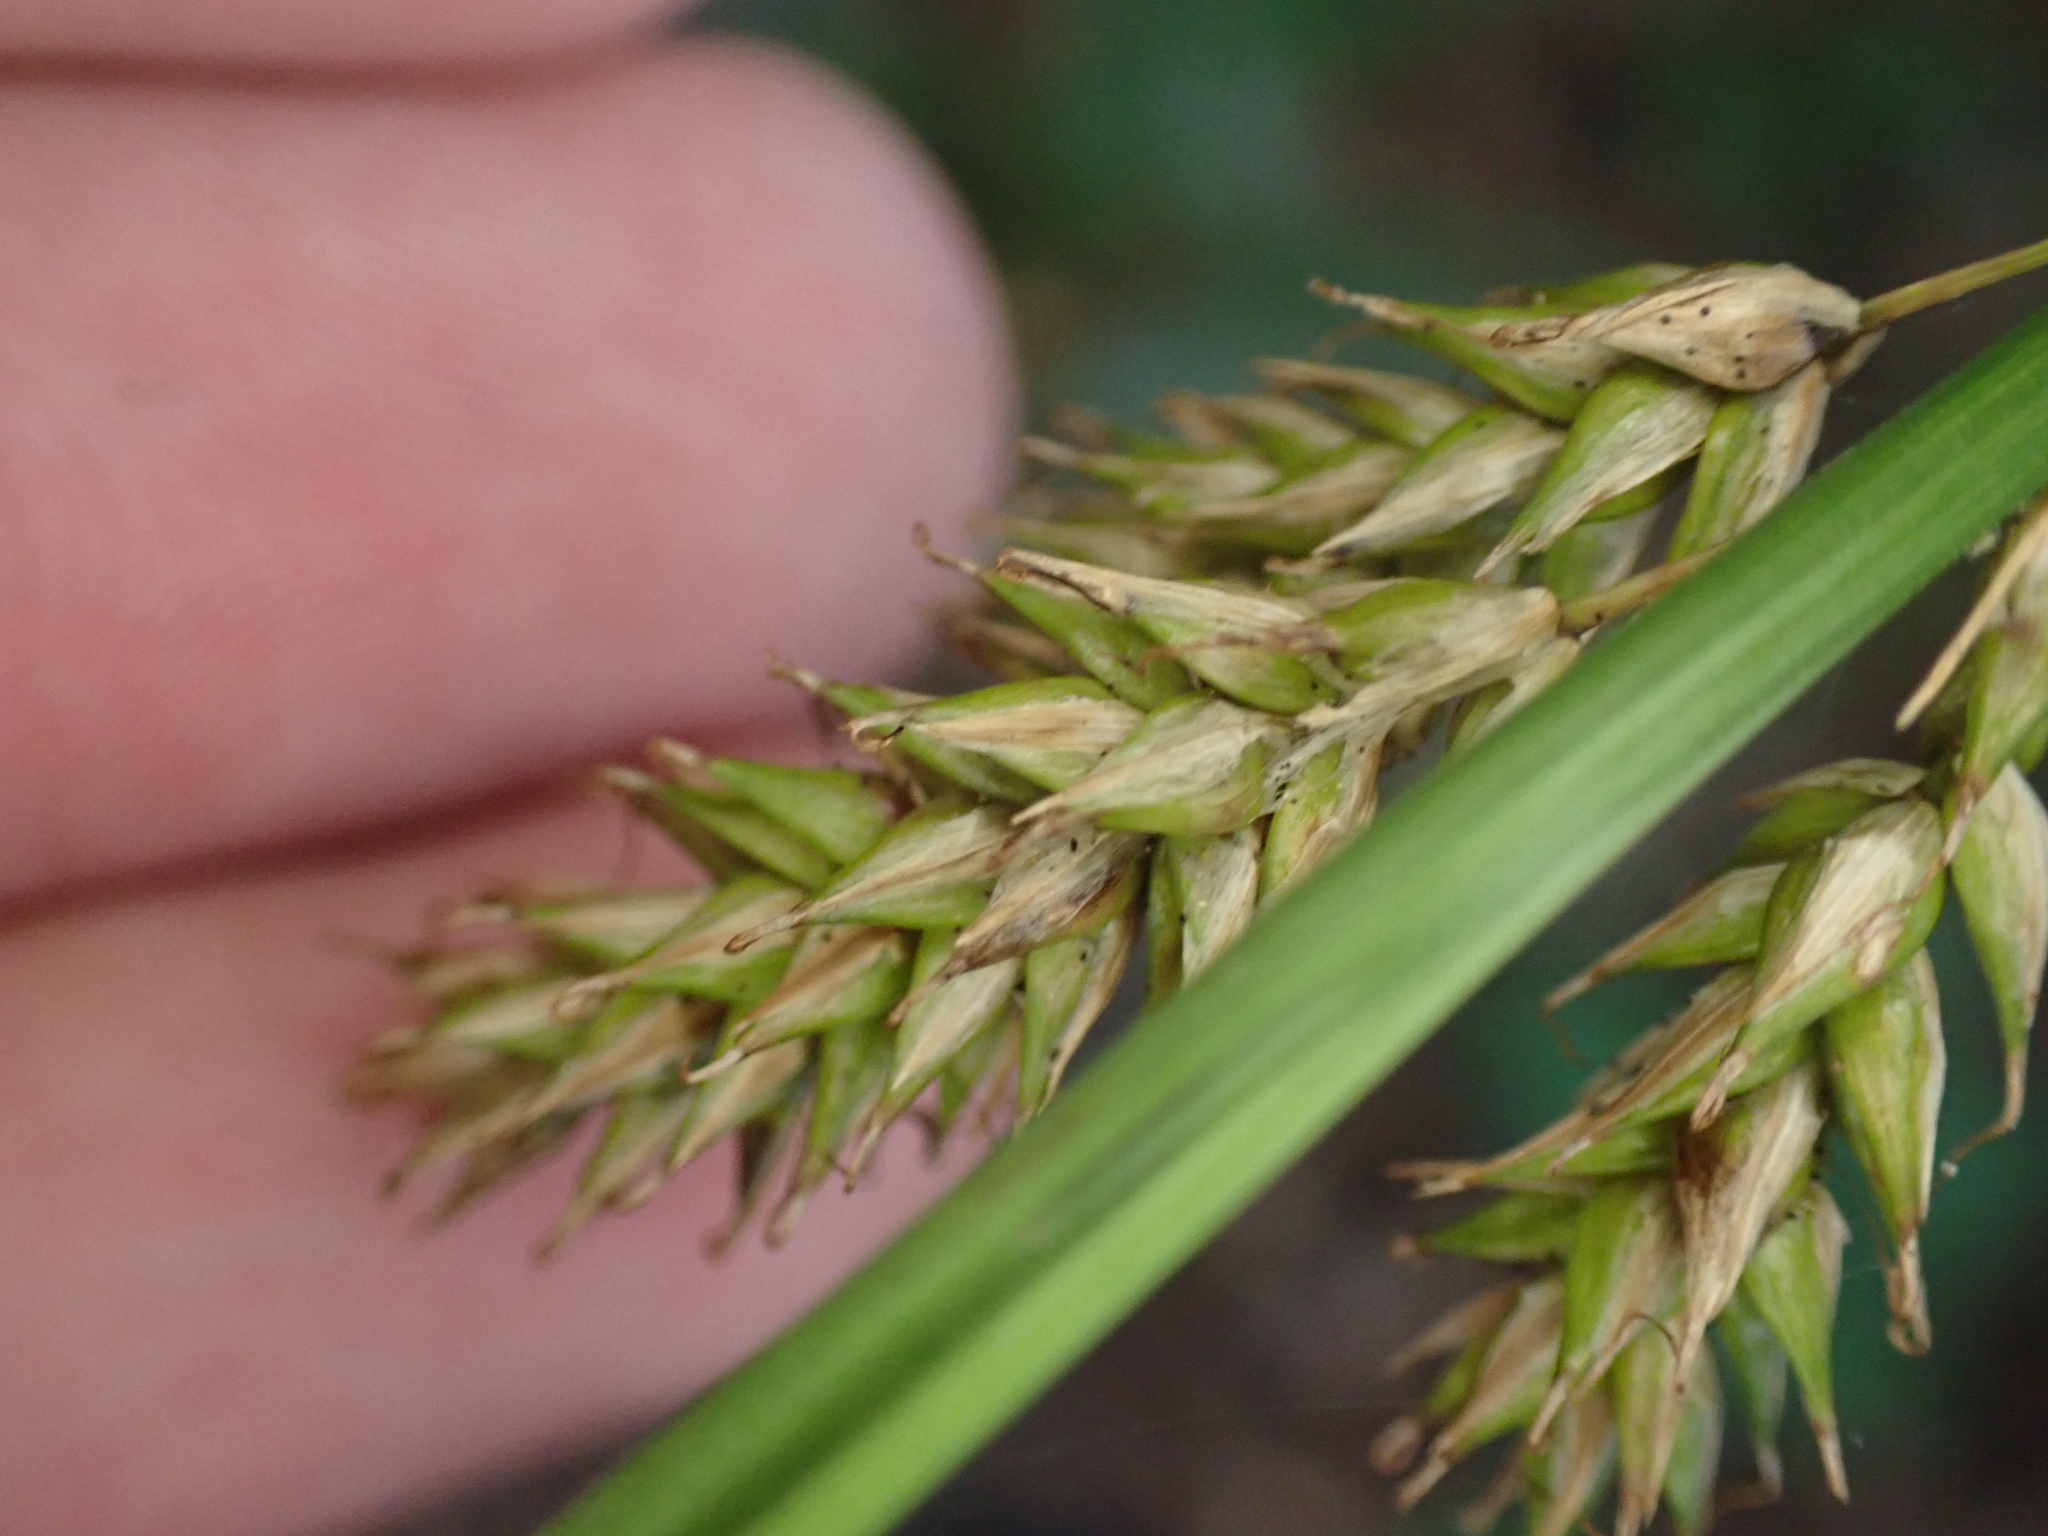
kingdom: Plantae
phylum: Tracheophyta
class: Liliopsida
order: Poales
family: Cyperaceae
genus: Carex
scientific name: Carex cherokeensis
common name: Cherokee sedge
